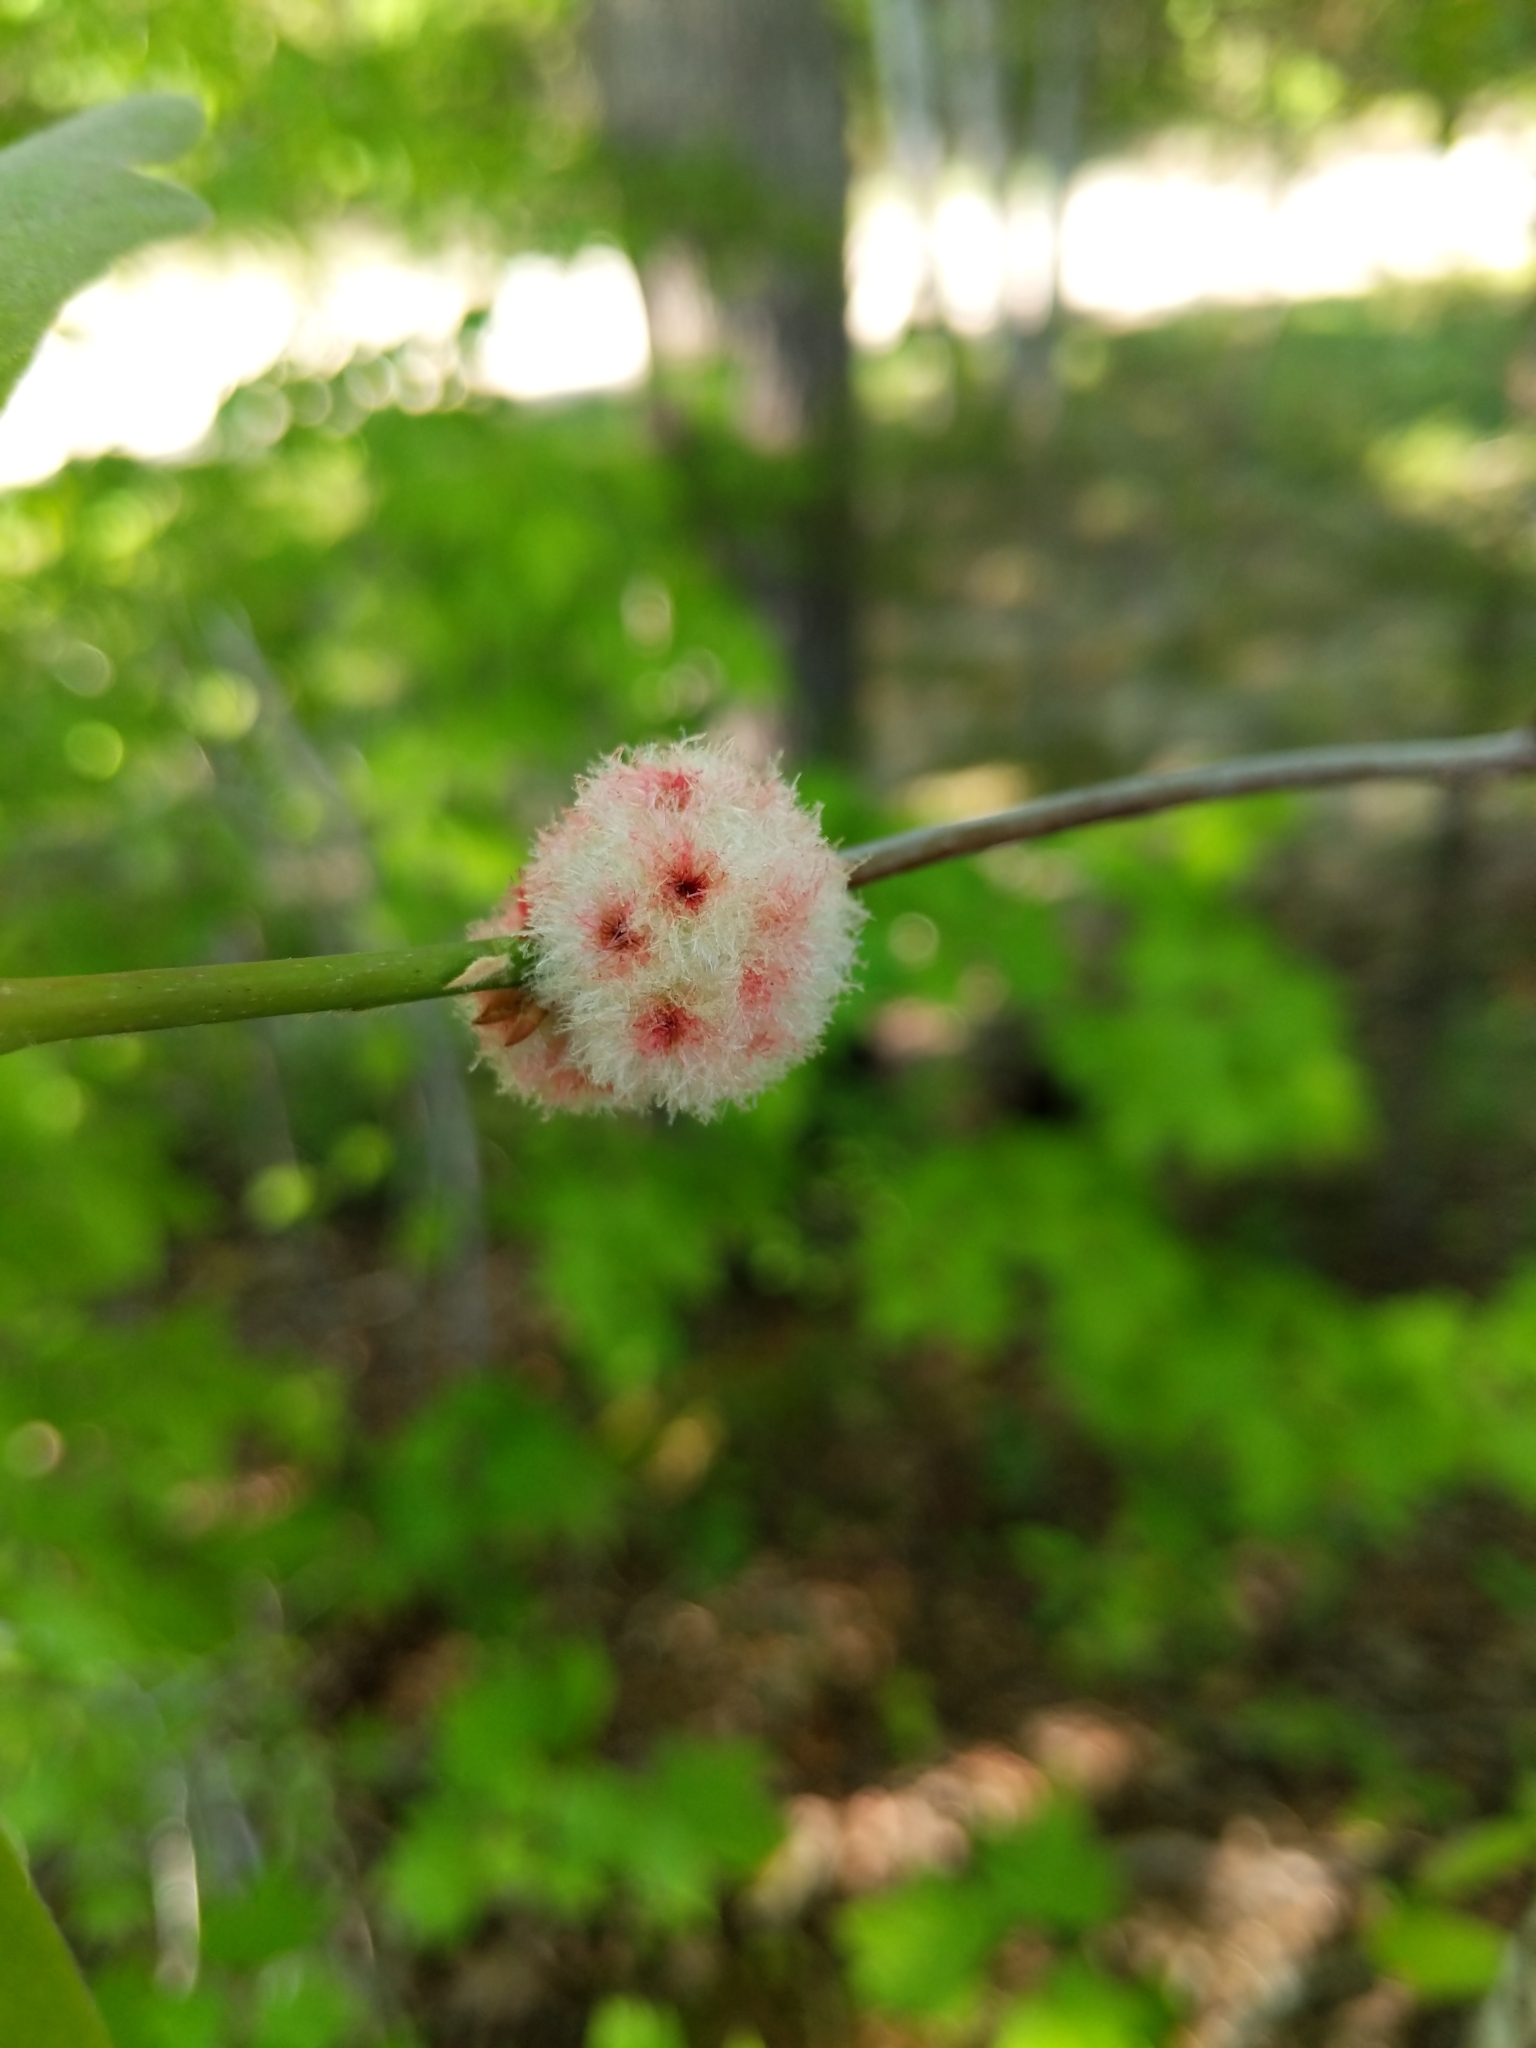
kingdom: Animalia
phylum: Arthropoda
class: Insecta
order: Hymenoptera
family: Cynipidae
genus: Callirhytis
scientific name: Callirhytis
